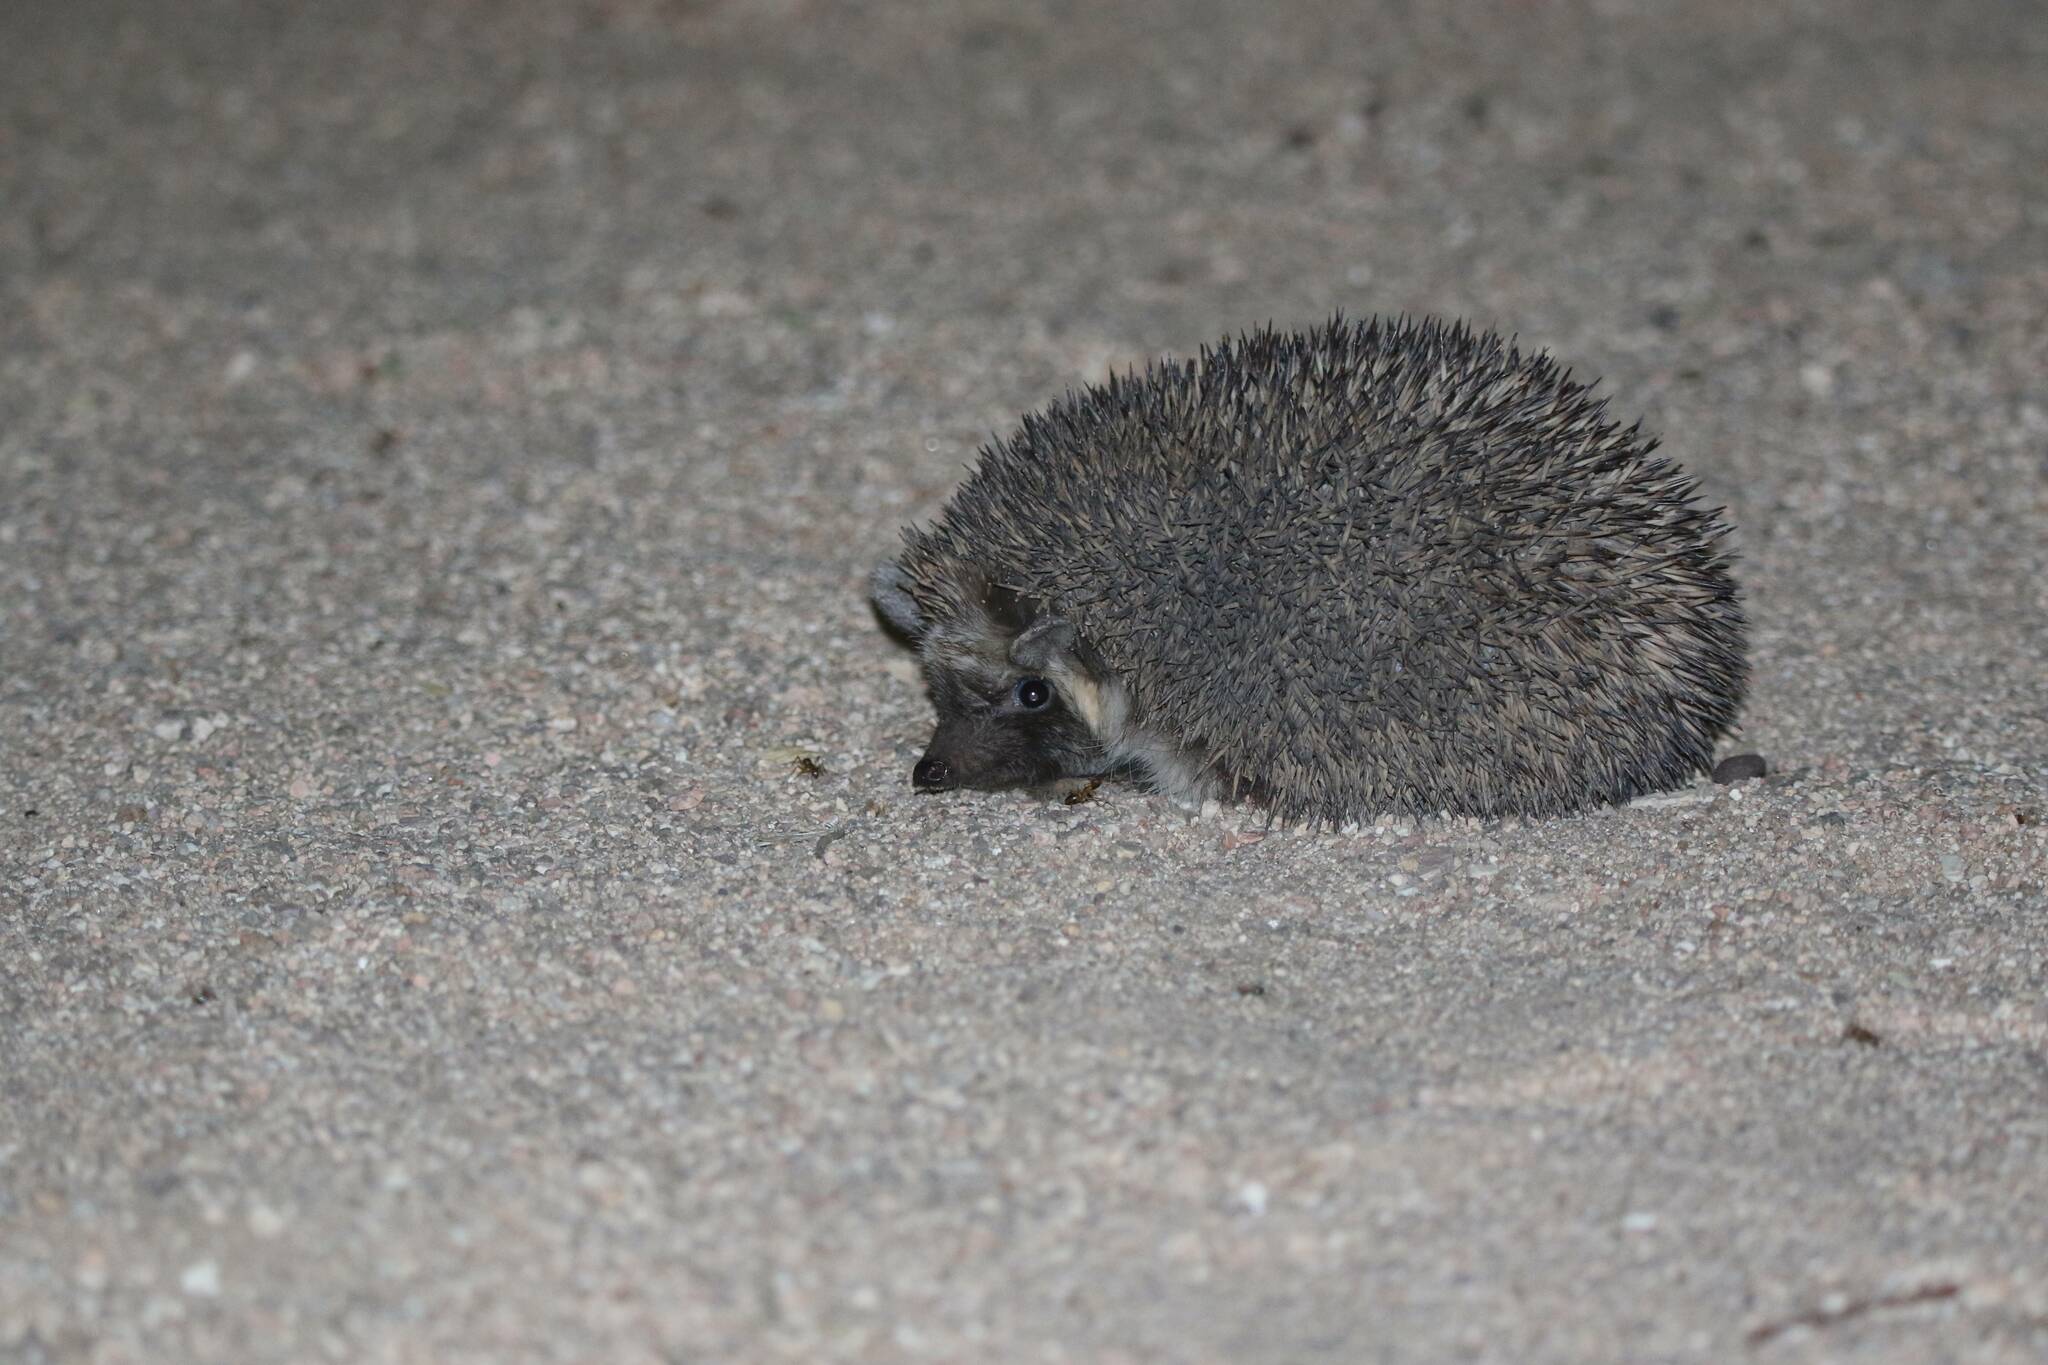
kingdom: Animalia
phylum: Chordata
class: Mammalia
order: Erinaceomorpha
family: Erinaceidae
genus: Paraechinus
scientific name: Paraechinus aethiopicus
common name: Desert hedgehog
